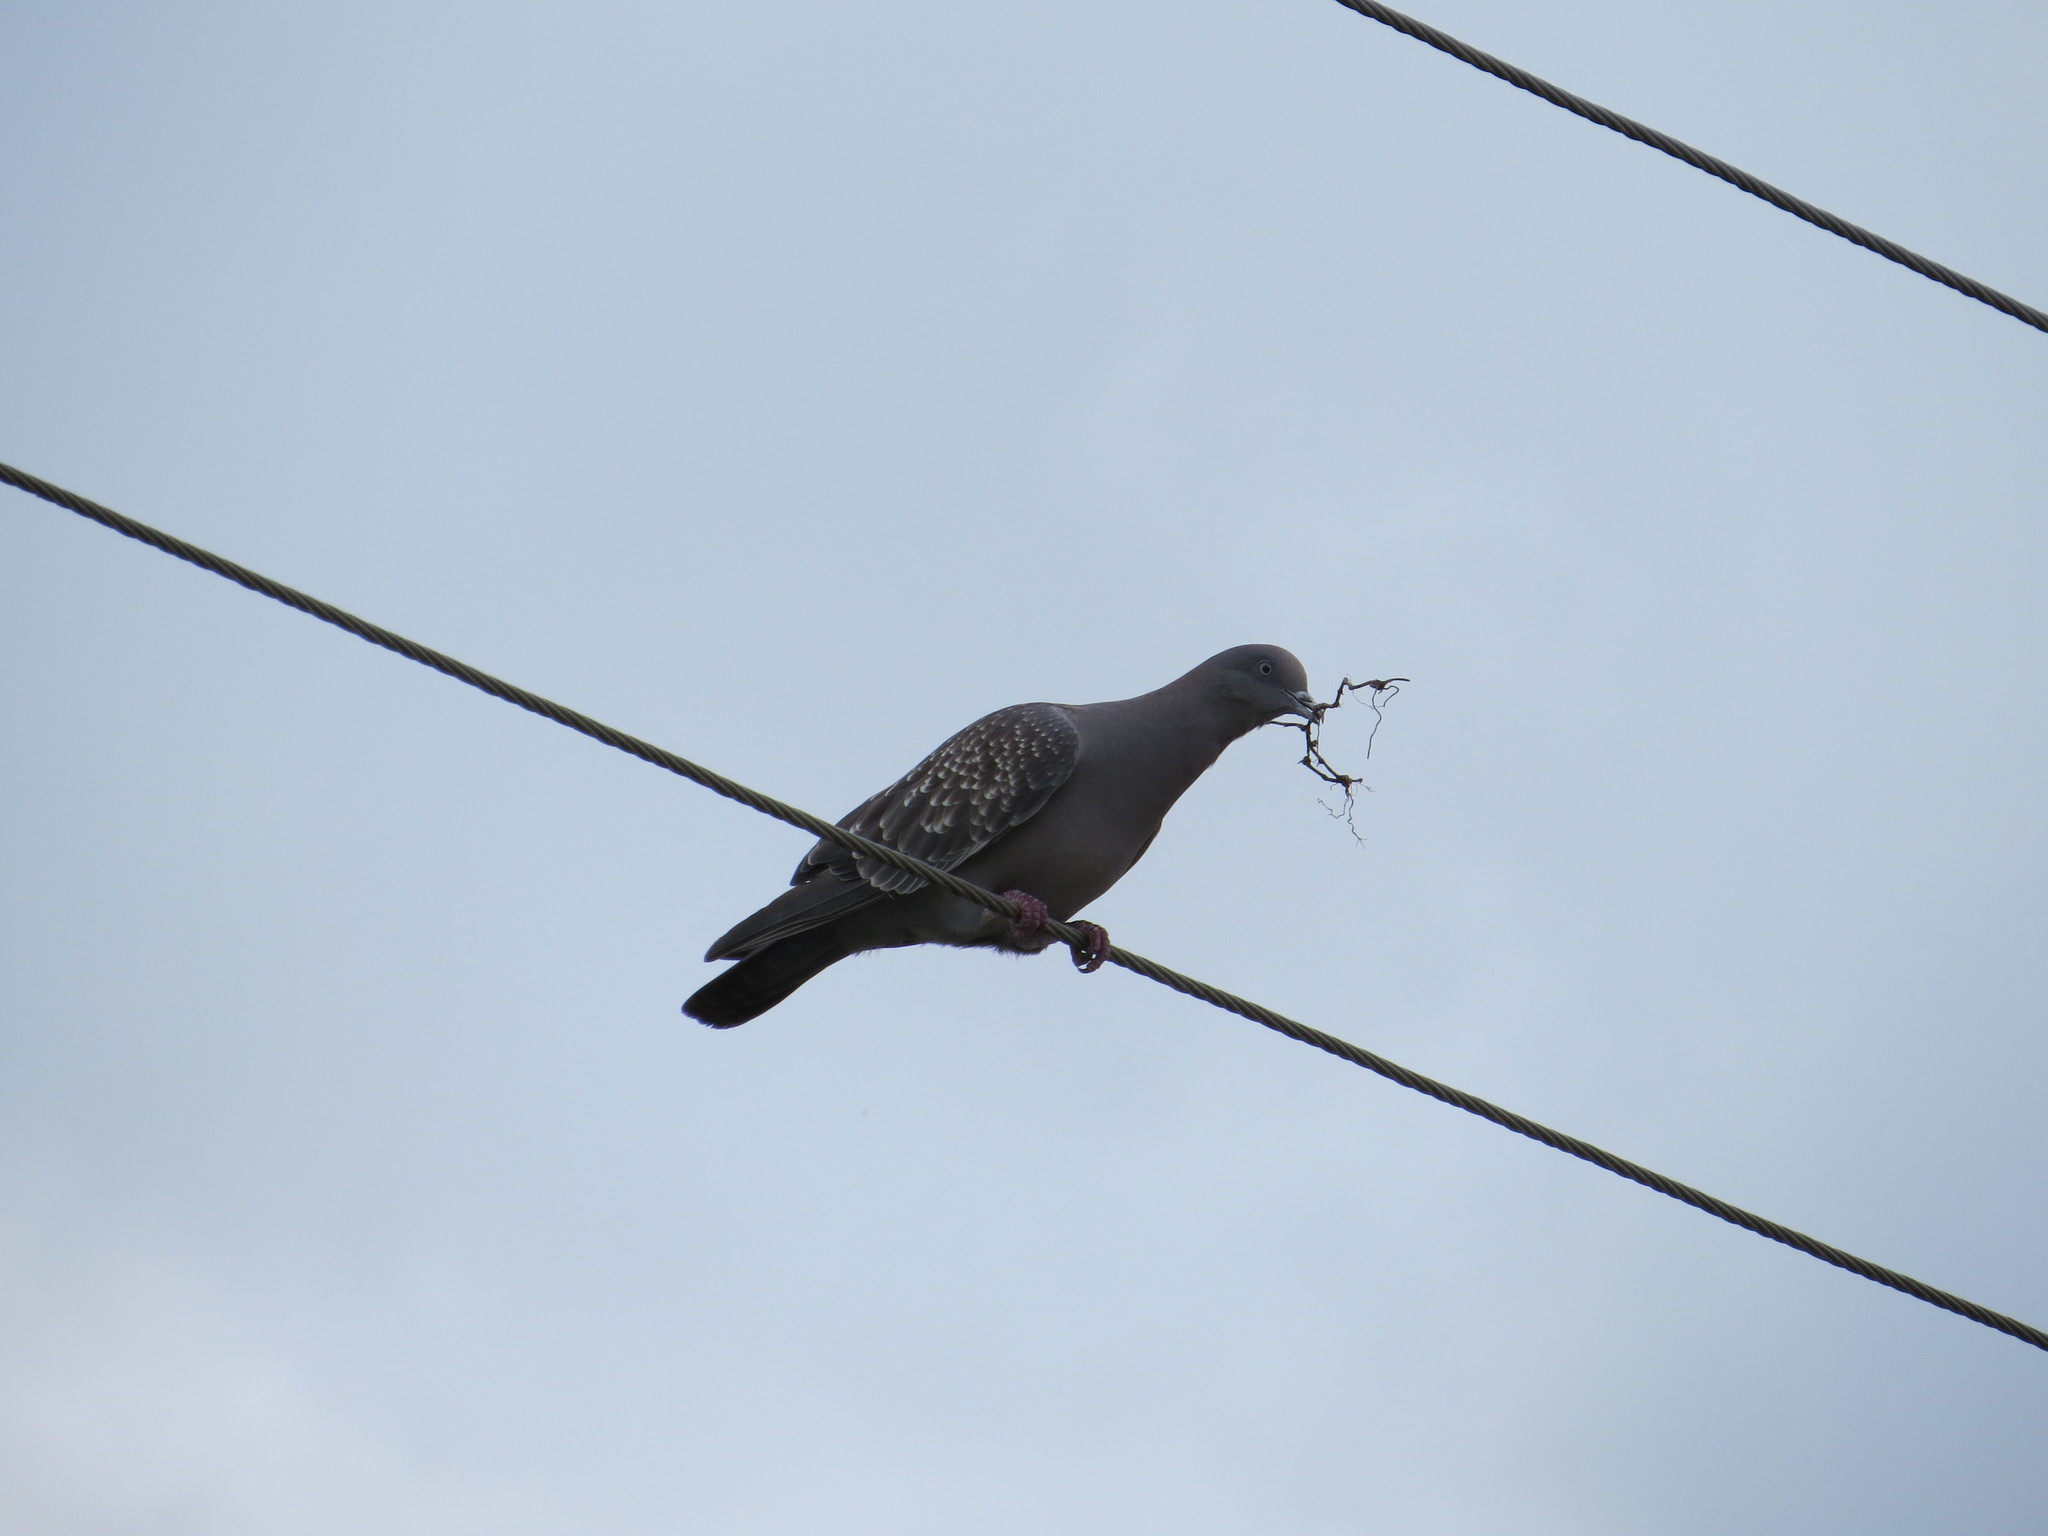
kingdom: Animalia
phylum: Chordata
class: Aves
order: Columbiformes
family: Columbidae
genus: Patagioenas
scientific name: Patagioenas maculosa
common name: Spot-winged pigeon
